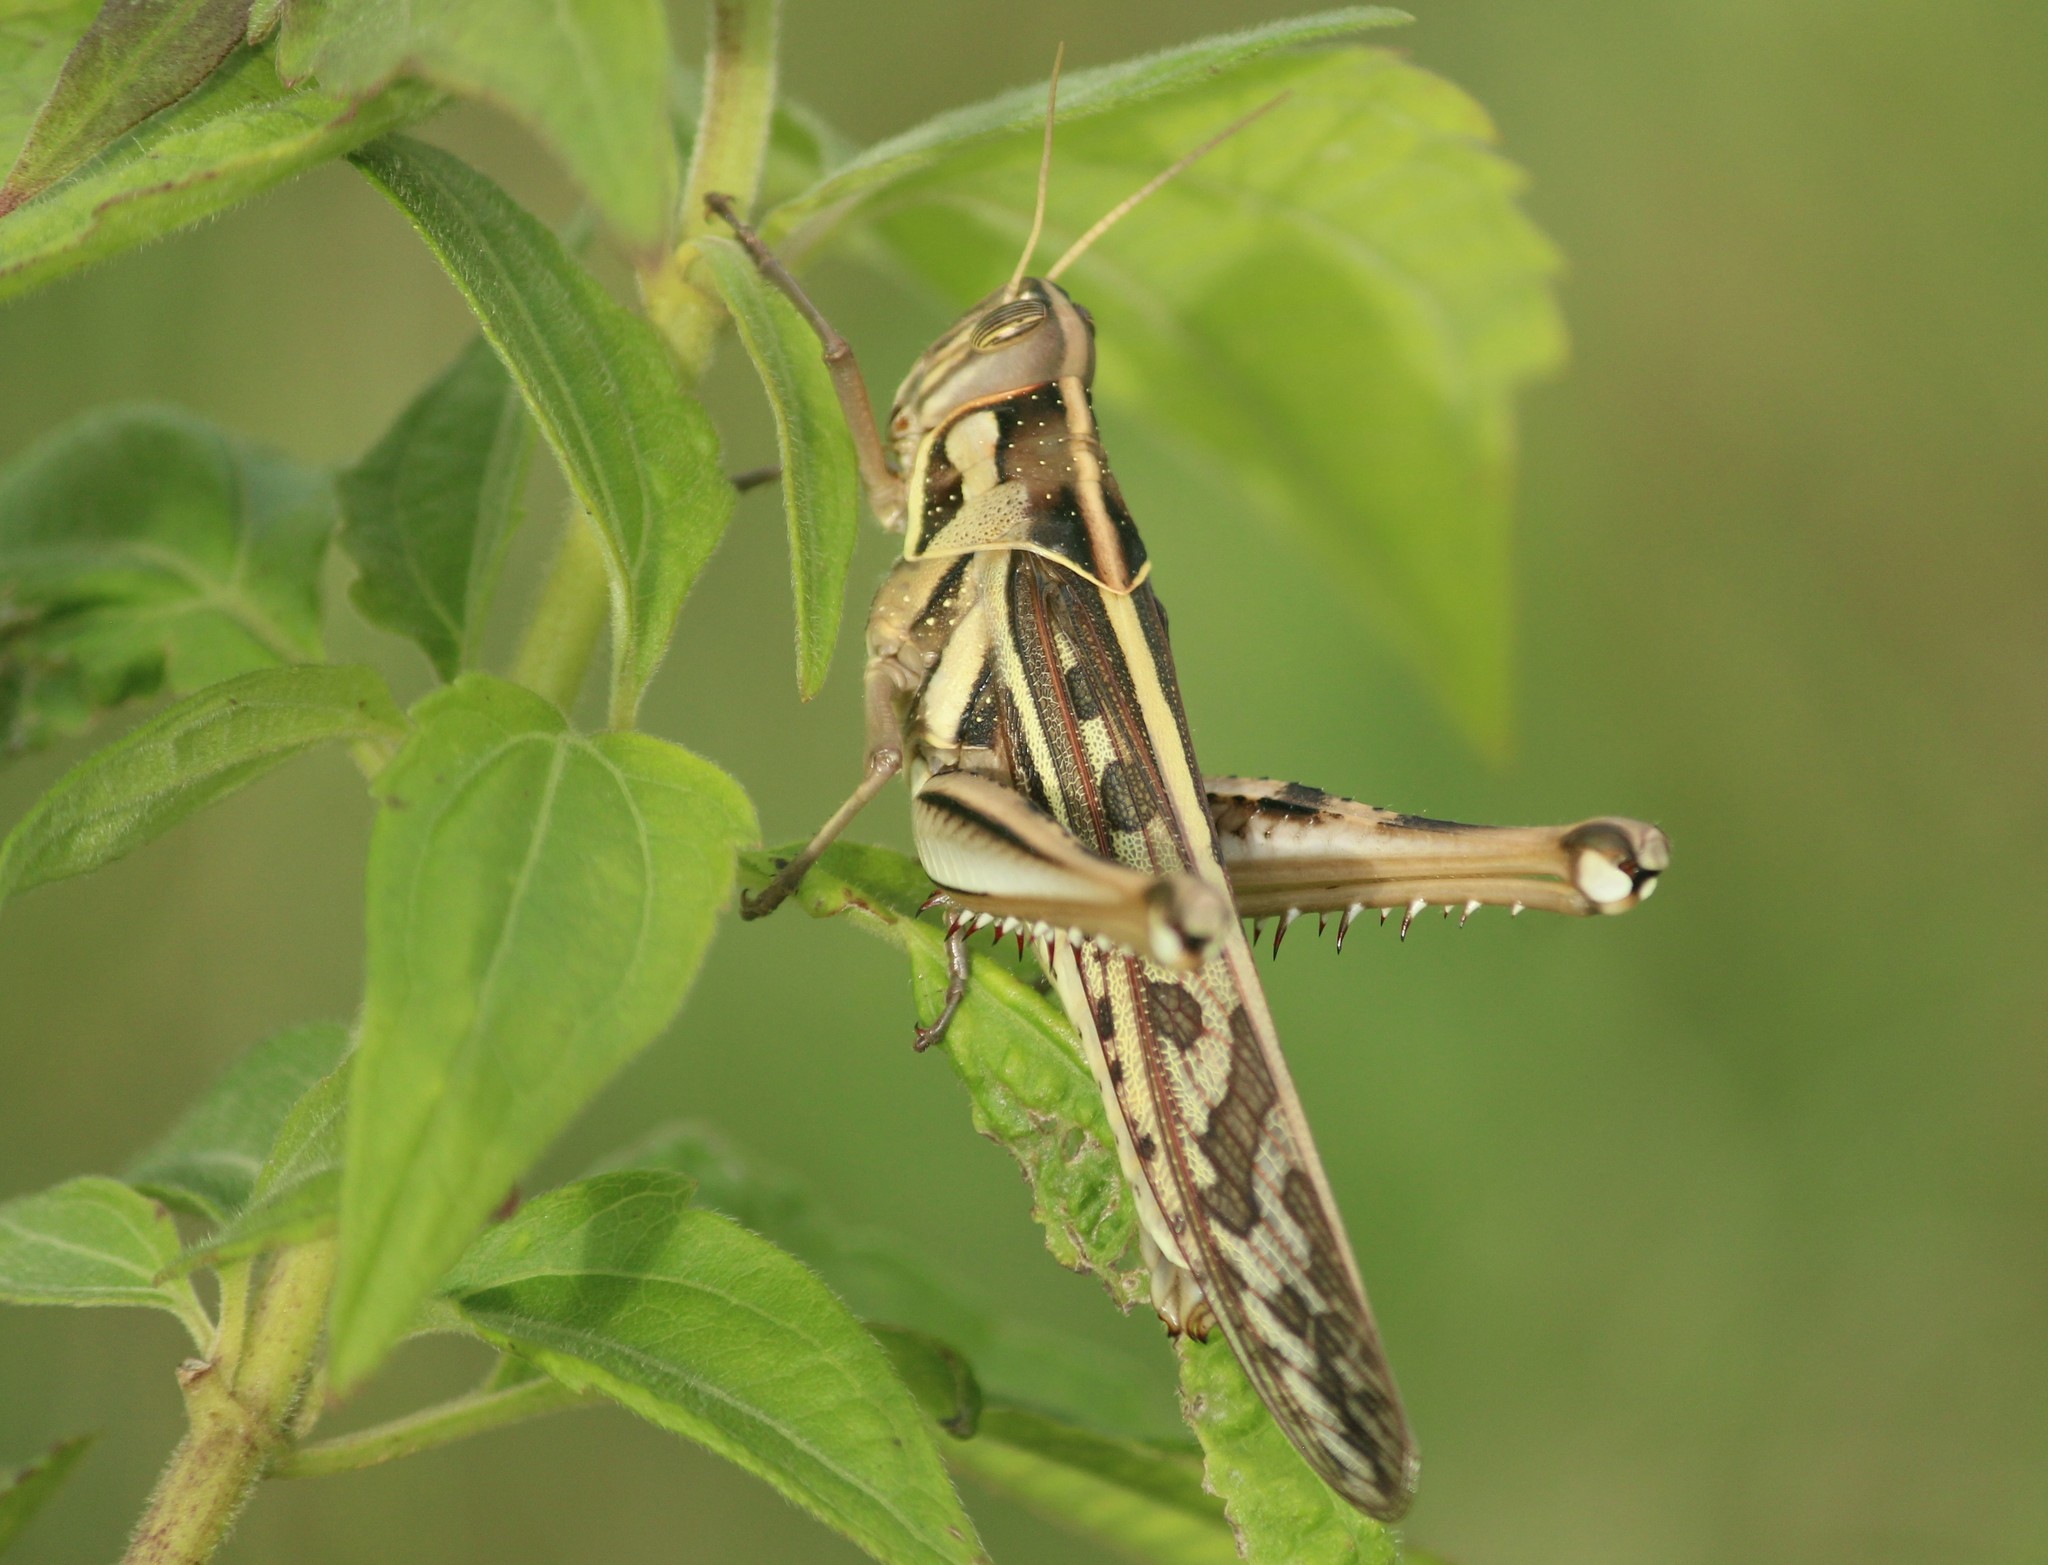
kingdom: Animalia
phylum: Arthropoda
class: Insecta
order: Orthoptera
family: Acrididae
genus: Cyrtacanthacris
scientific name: Cyrtacanthacris tatarica
